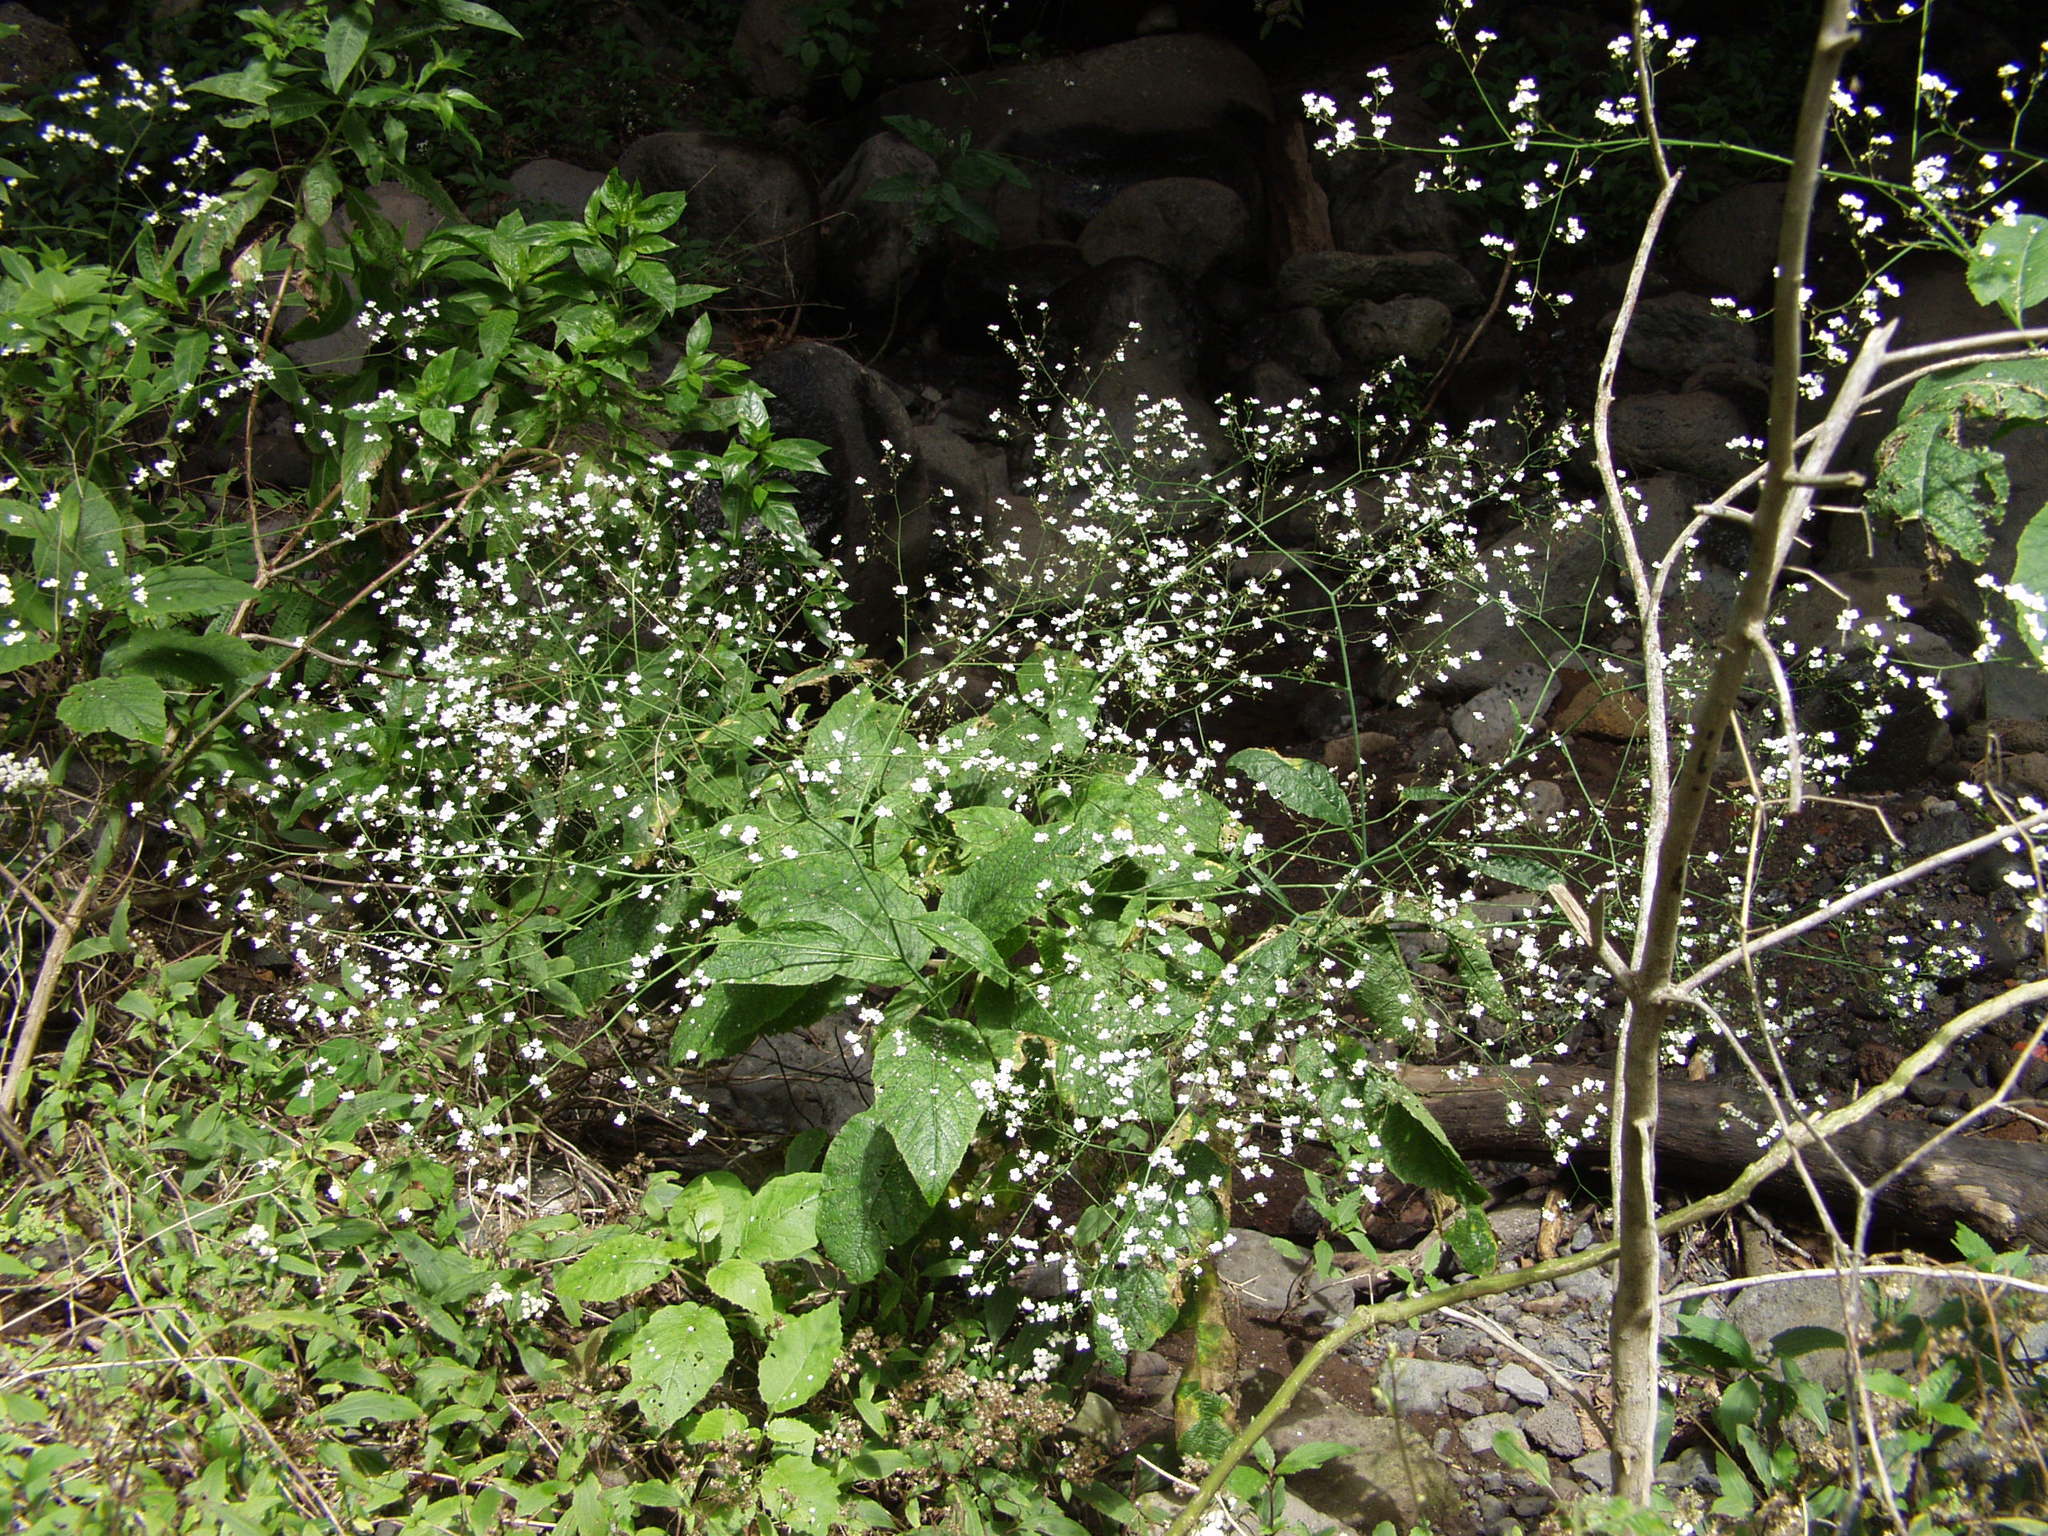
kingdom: Plantae
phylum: Tracheophyta
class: Magnoliopsida
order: Brassicales
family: Brassicaceae
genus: Crambe
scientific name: Crambe strigosa
